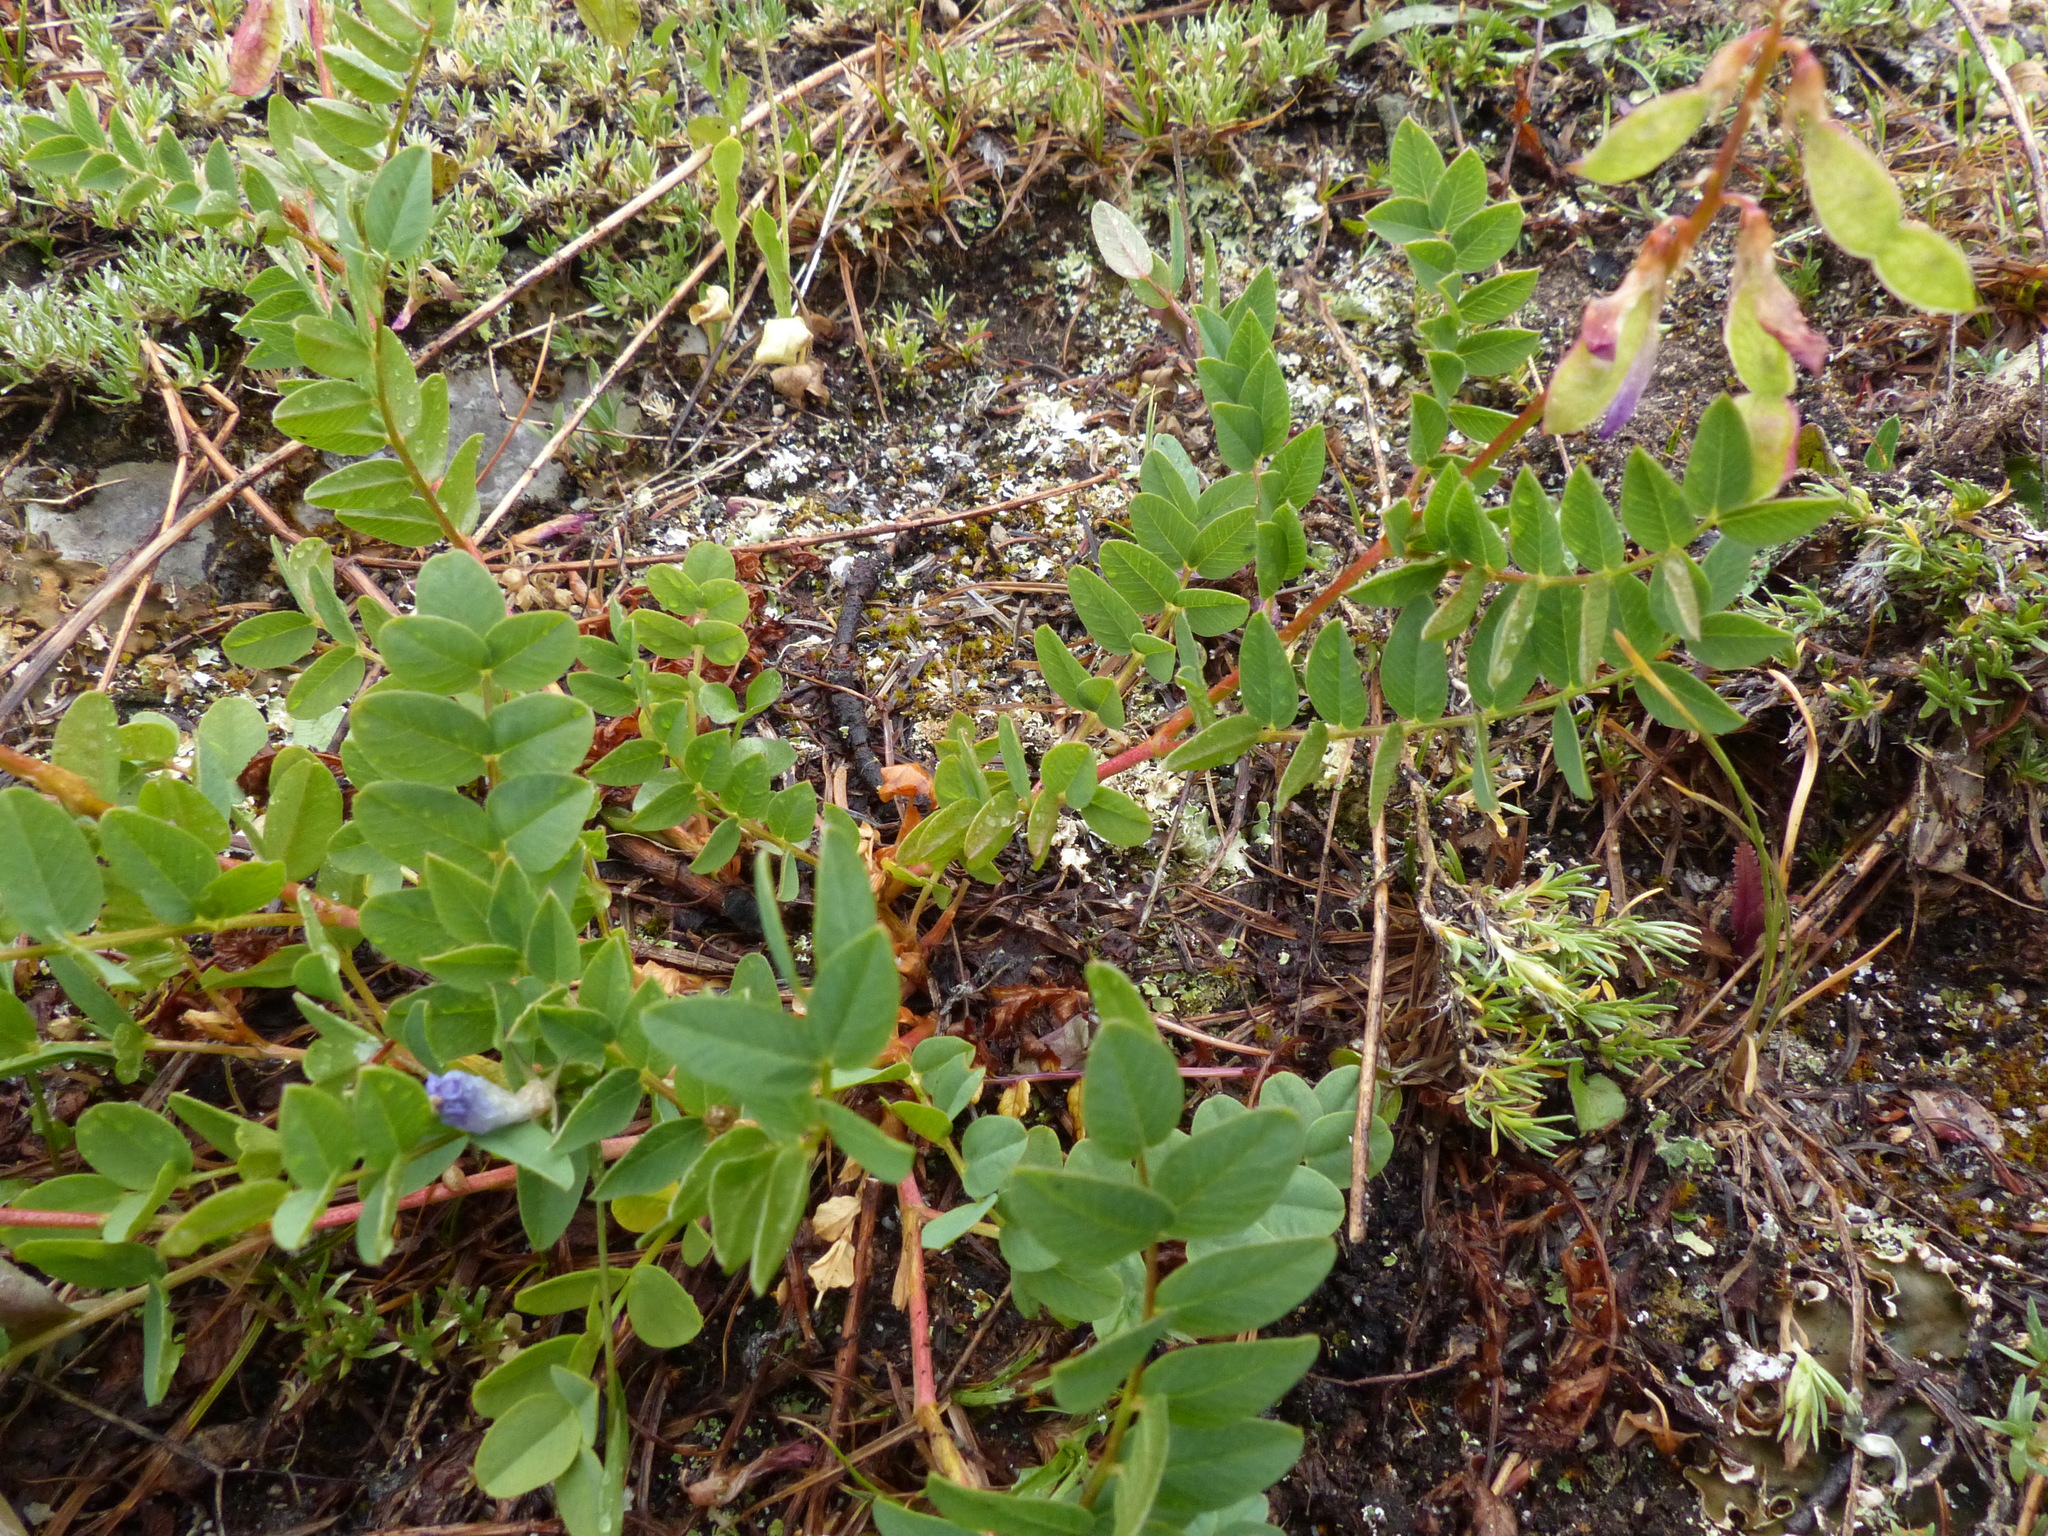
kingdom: Plantae
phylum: Tracheophyta
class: Magnoliopsida
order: Fabales
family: Fabaceae
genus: Hedysarum
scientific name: Hedysarum occidentale
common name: Western hedysarum
